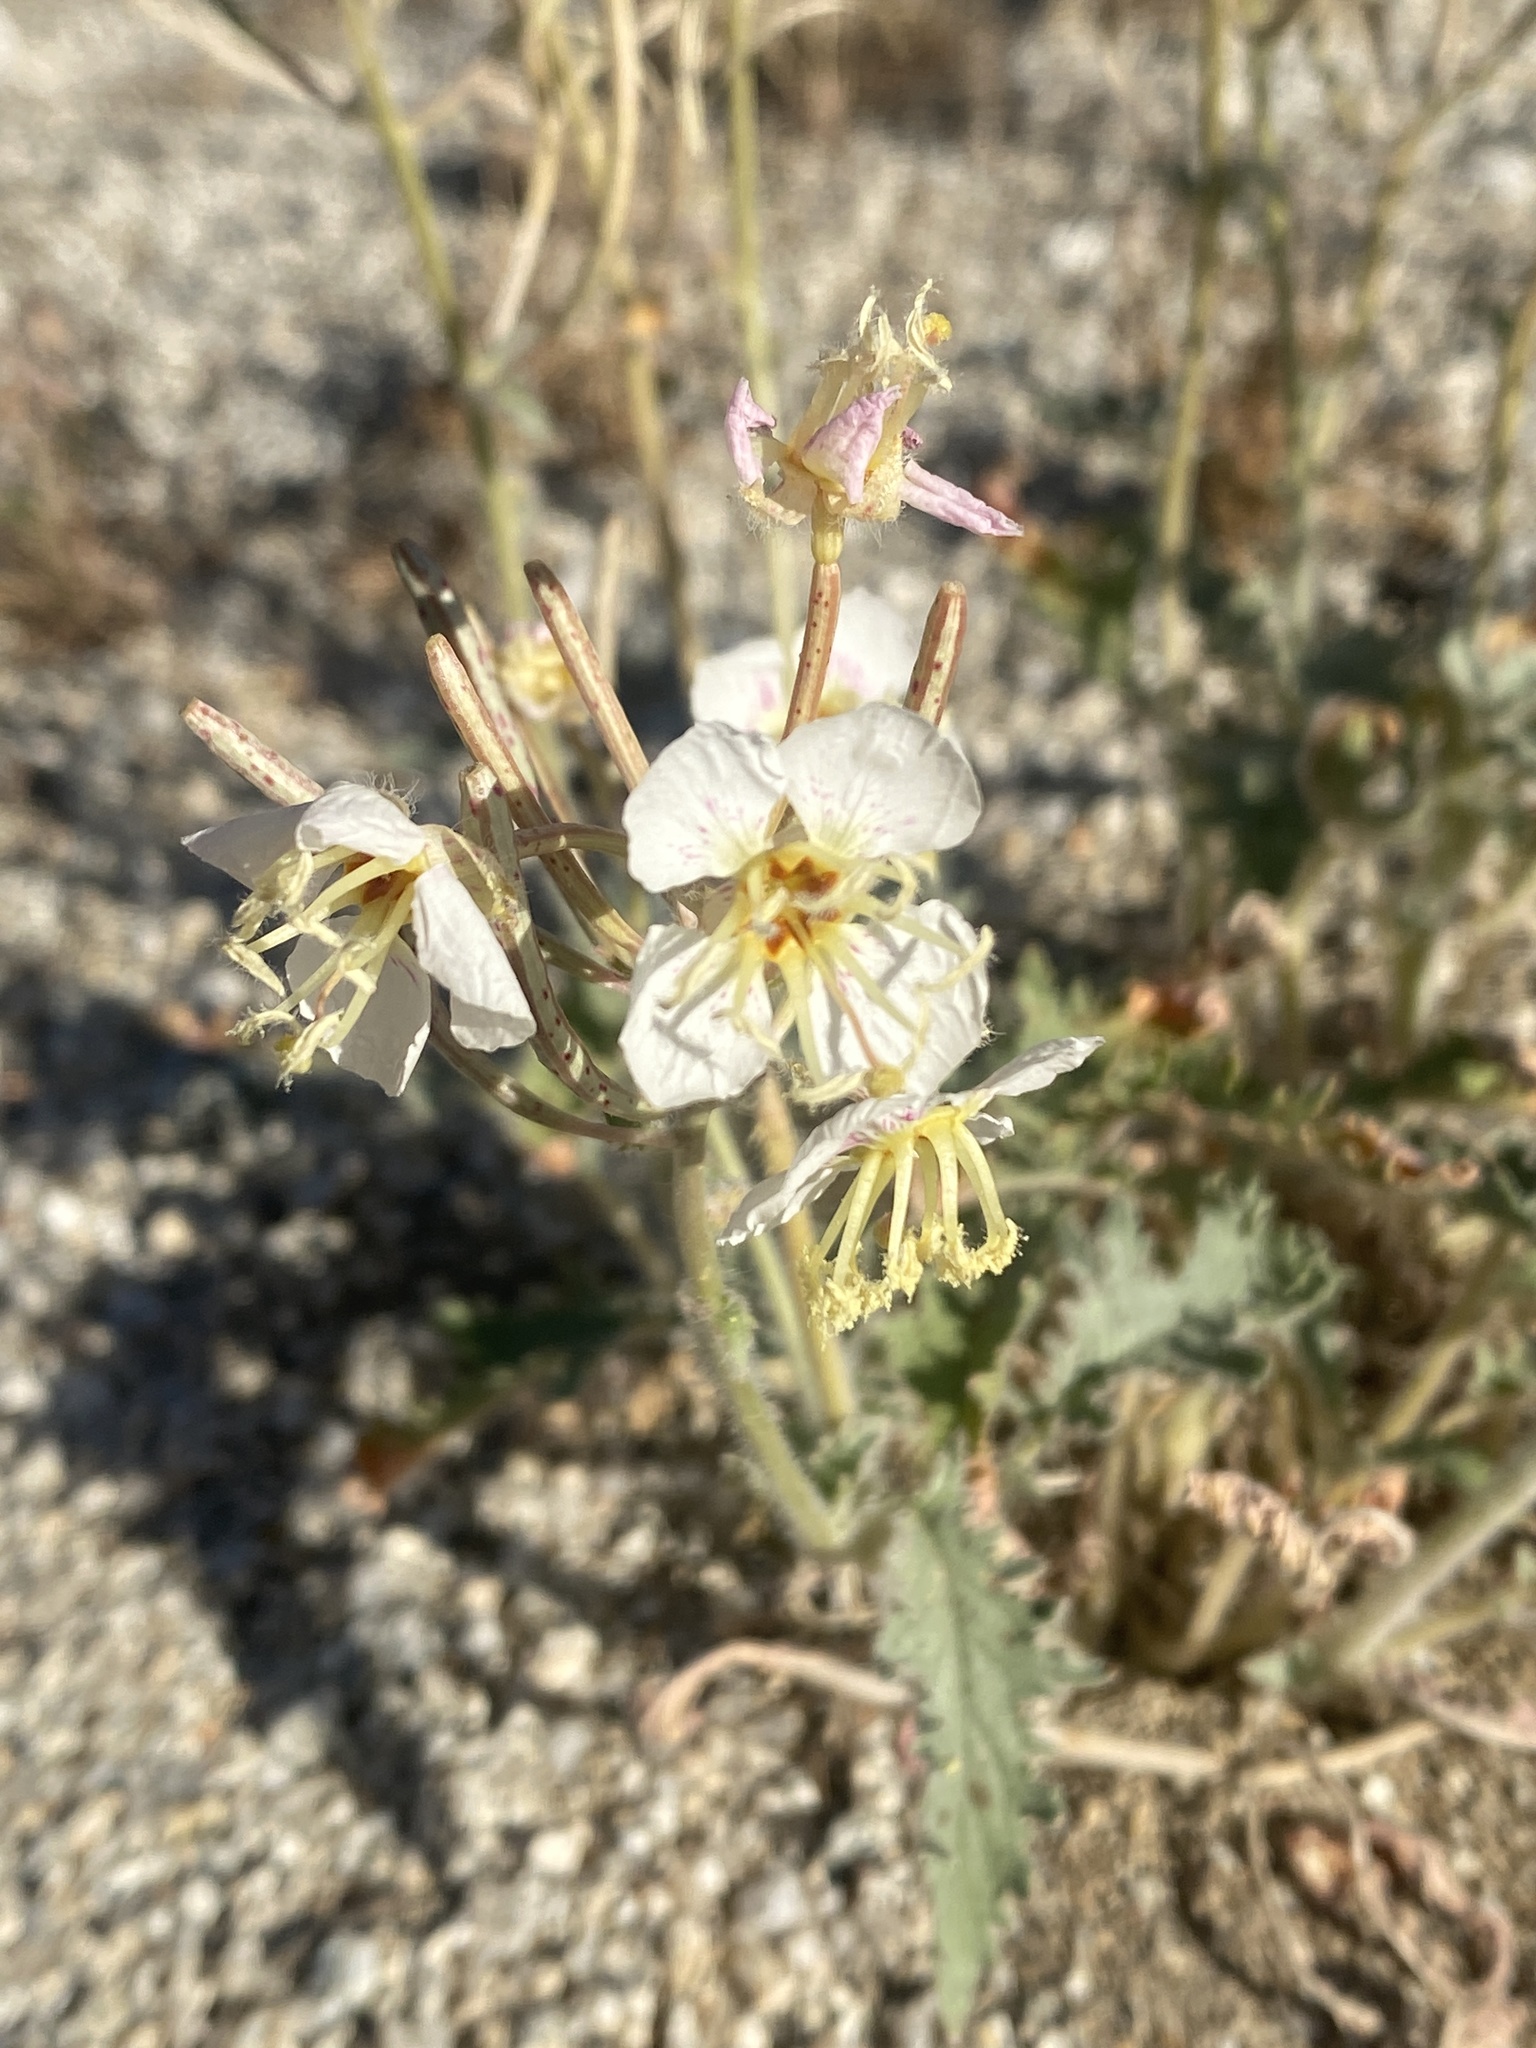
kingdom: Plantae
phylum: Tracheophyta
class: Magnoliopsida
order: Myrtales
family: Onagraceae
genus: Chylismia
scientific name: Chylismia claviformis
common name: Browneyes
